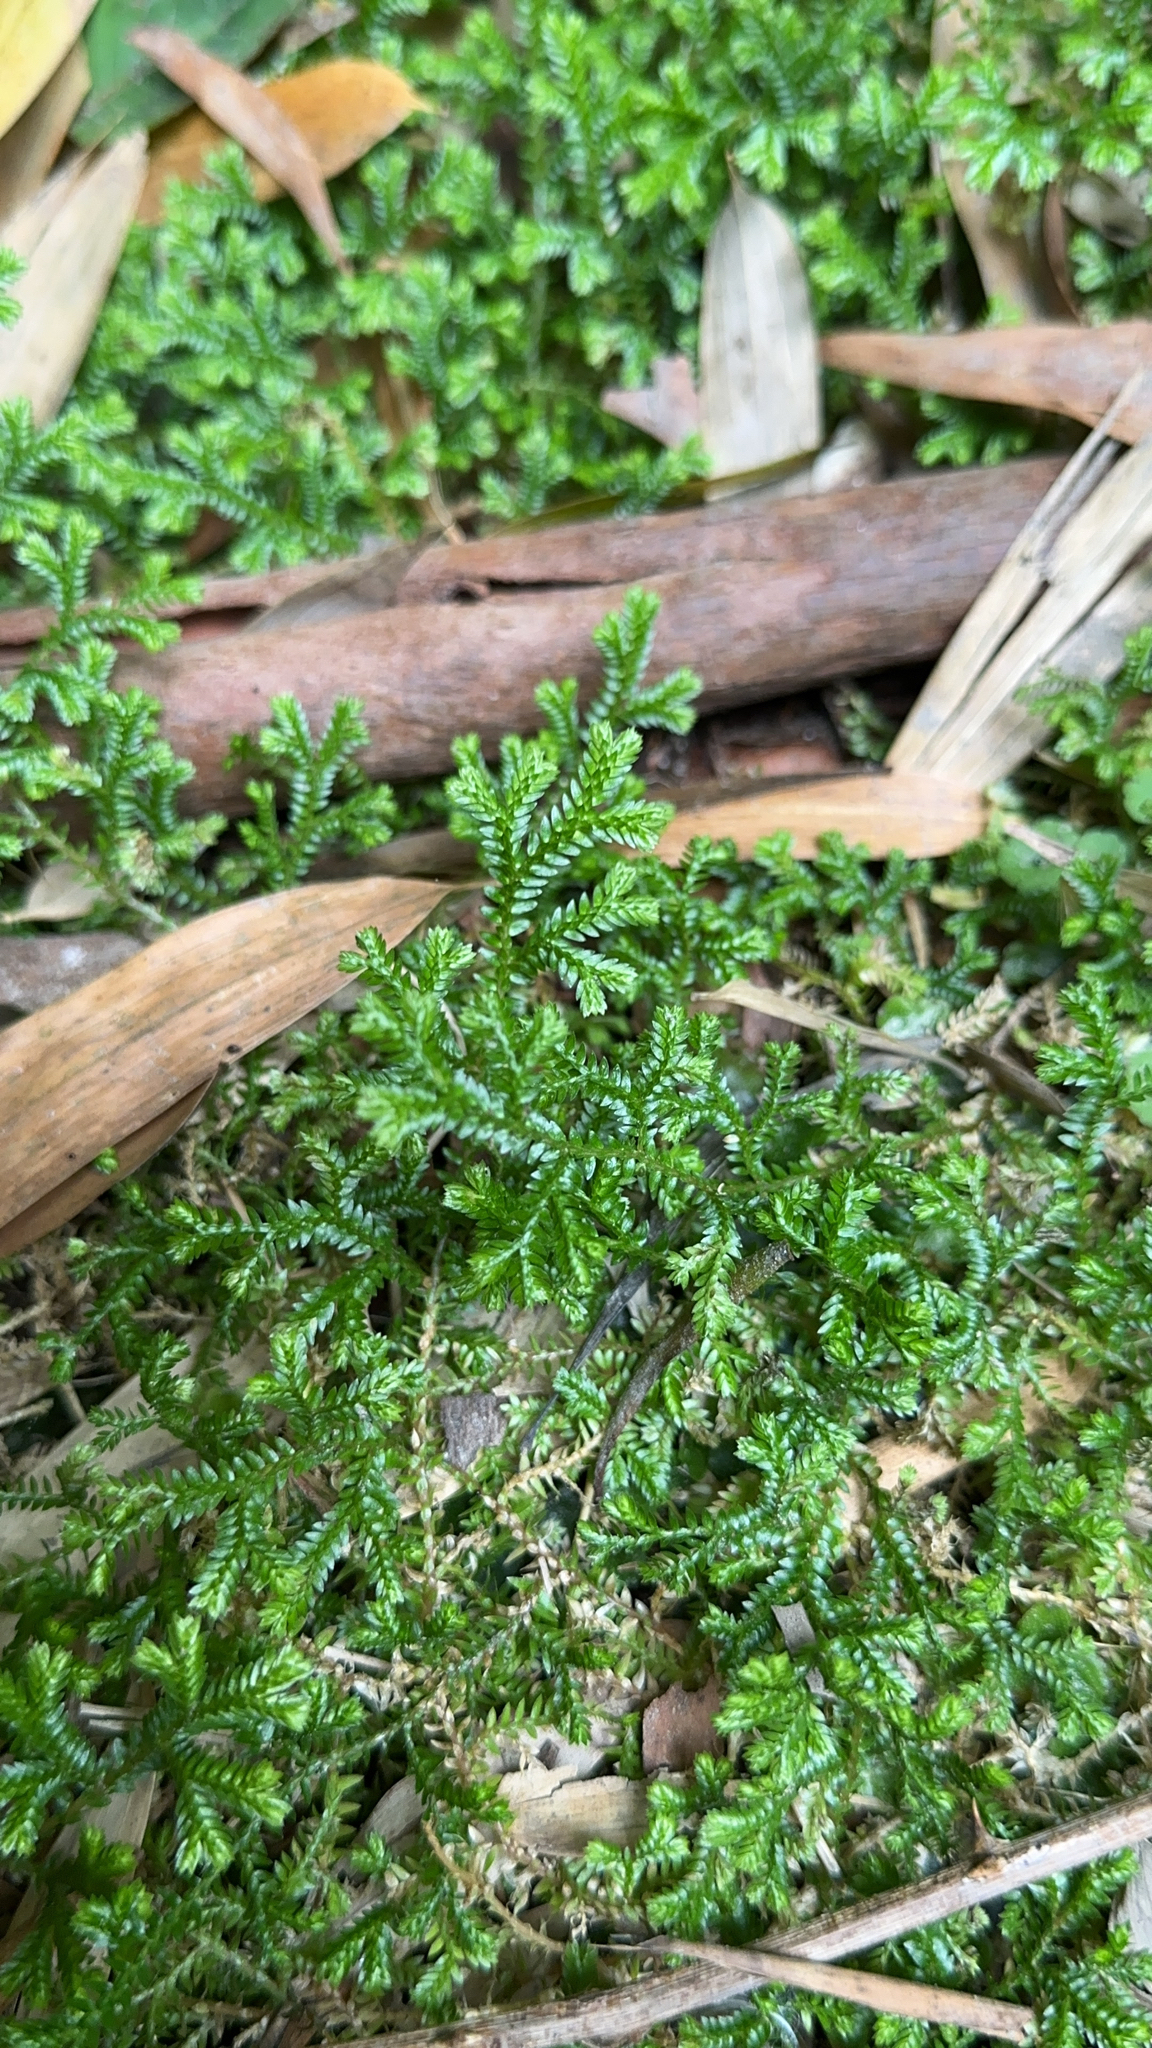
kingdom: Plantae
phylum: Tracheophyta
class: Lycopodiopsida
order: Selaginellales
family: Selaginellaceae
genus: Selaginella
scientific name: Selaginella kraussiana
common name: Krauss' spikemoss
